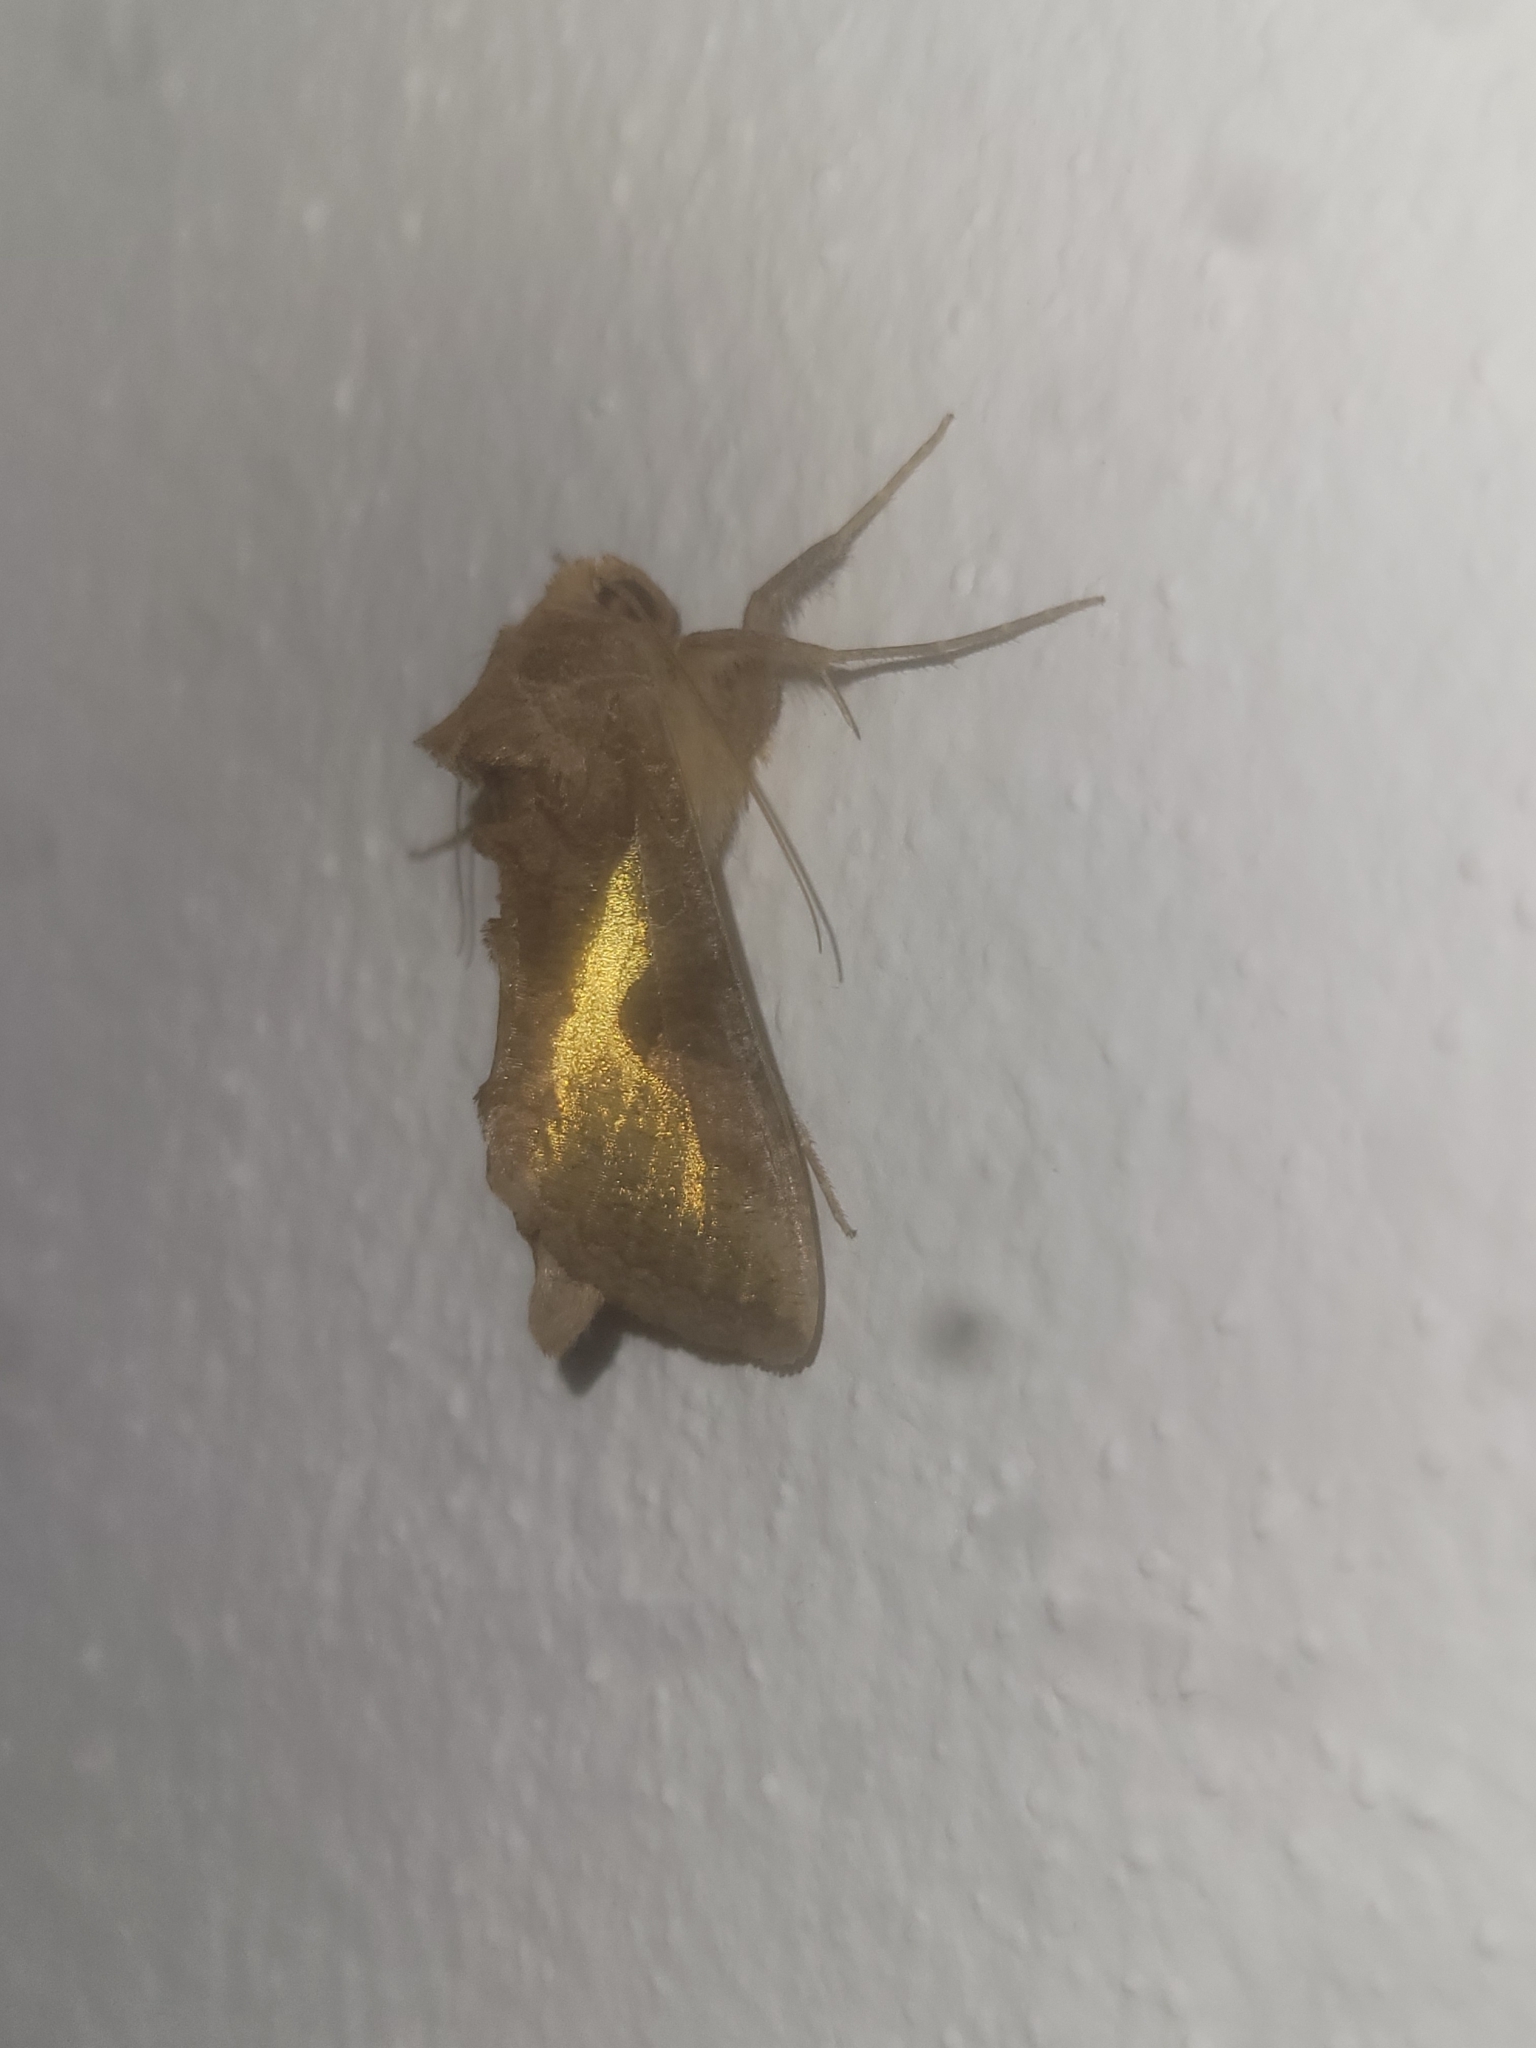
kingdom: Animalia
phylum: Arthropoda
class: Insecta
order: Lepidoptera
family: Noctuidae
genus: Thysanoplusia
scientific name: Thysanoplusia orichalcea
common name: Slender burnished brass, golden plusia
